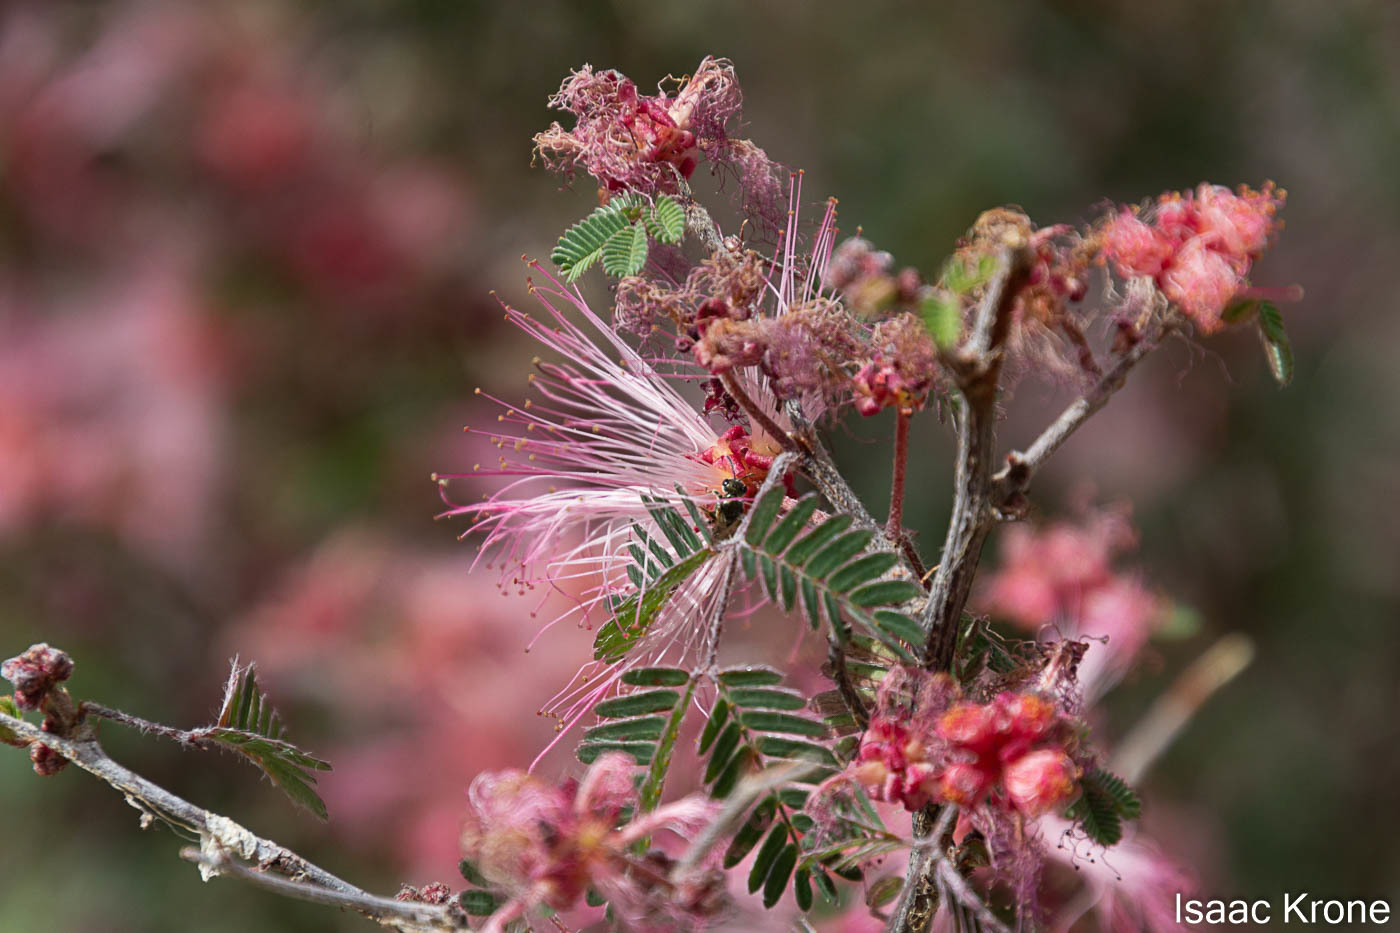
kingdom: Plantae
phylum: Tracheophyta
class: Magnoliopsida
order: Fabales
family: Fabaceae
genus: Calliandra
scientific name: Calliandra eriophylla
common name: Fairy-duster
